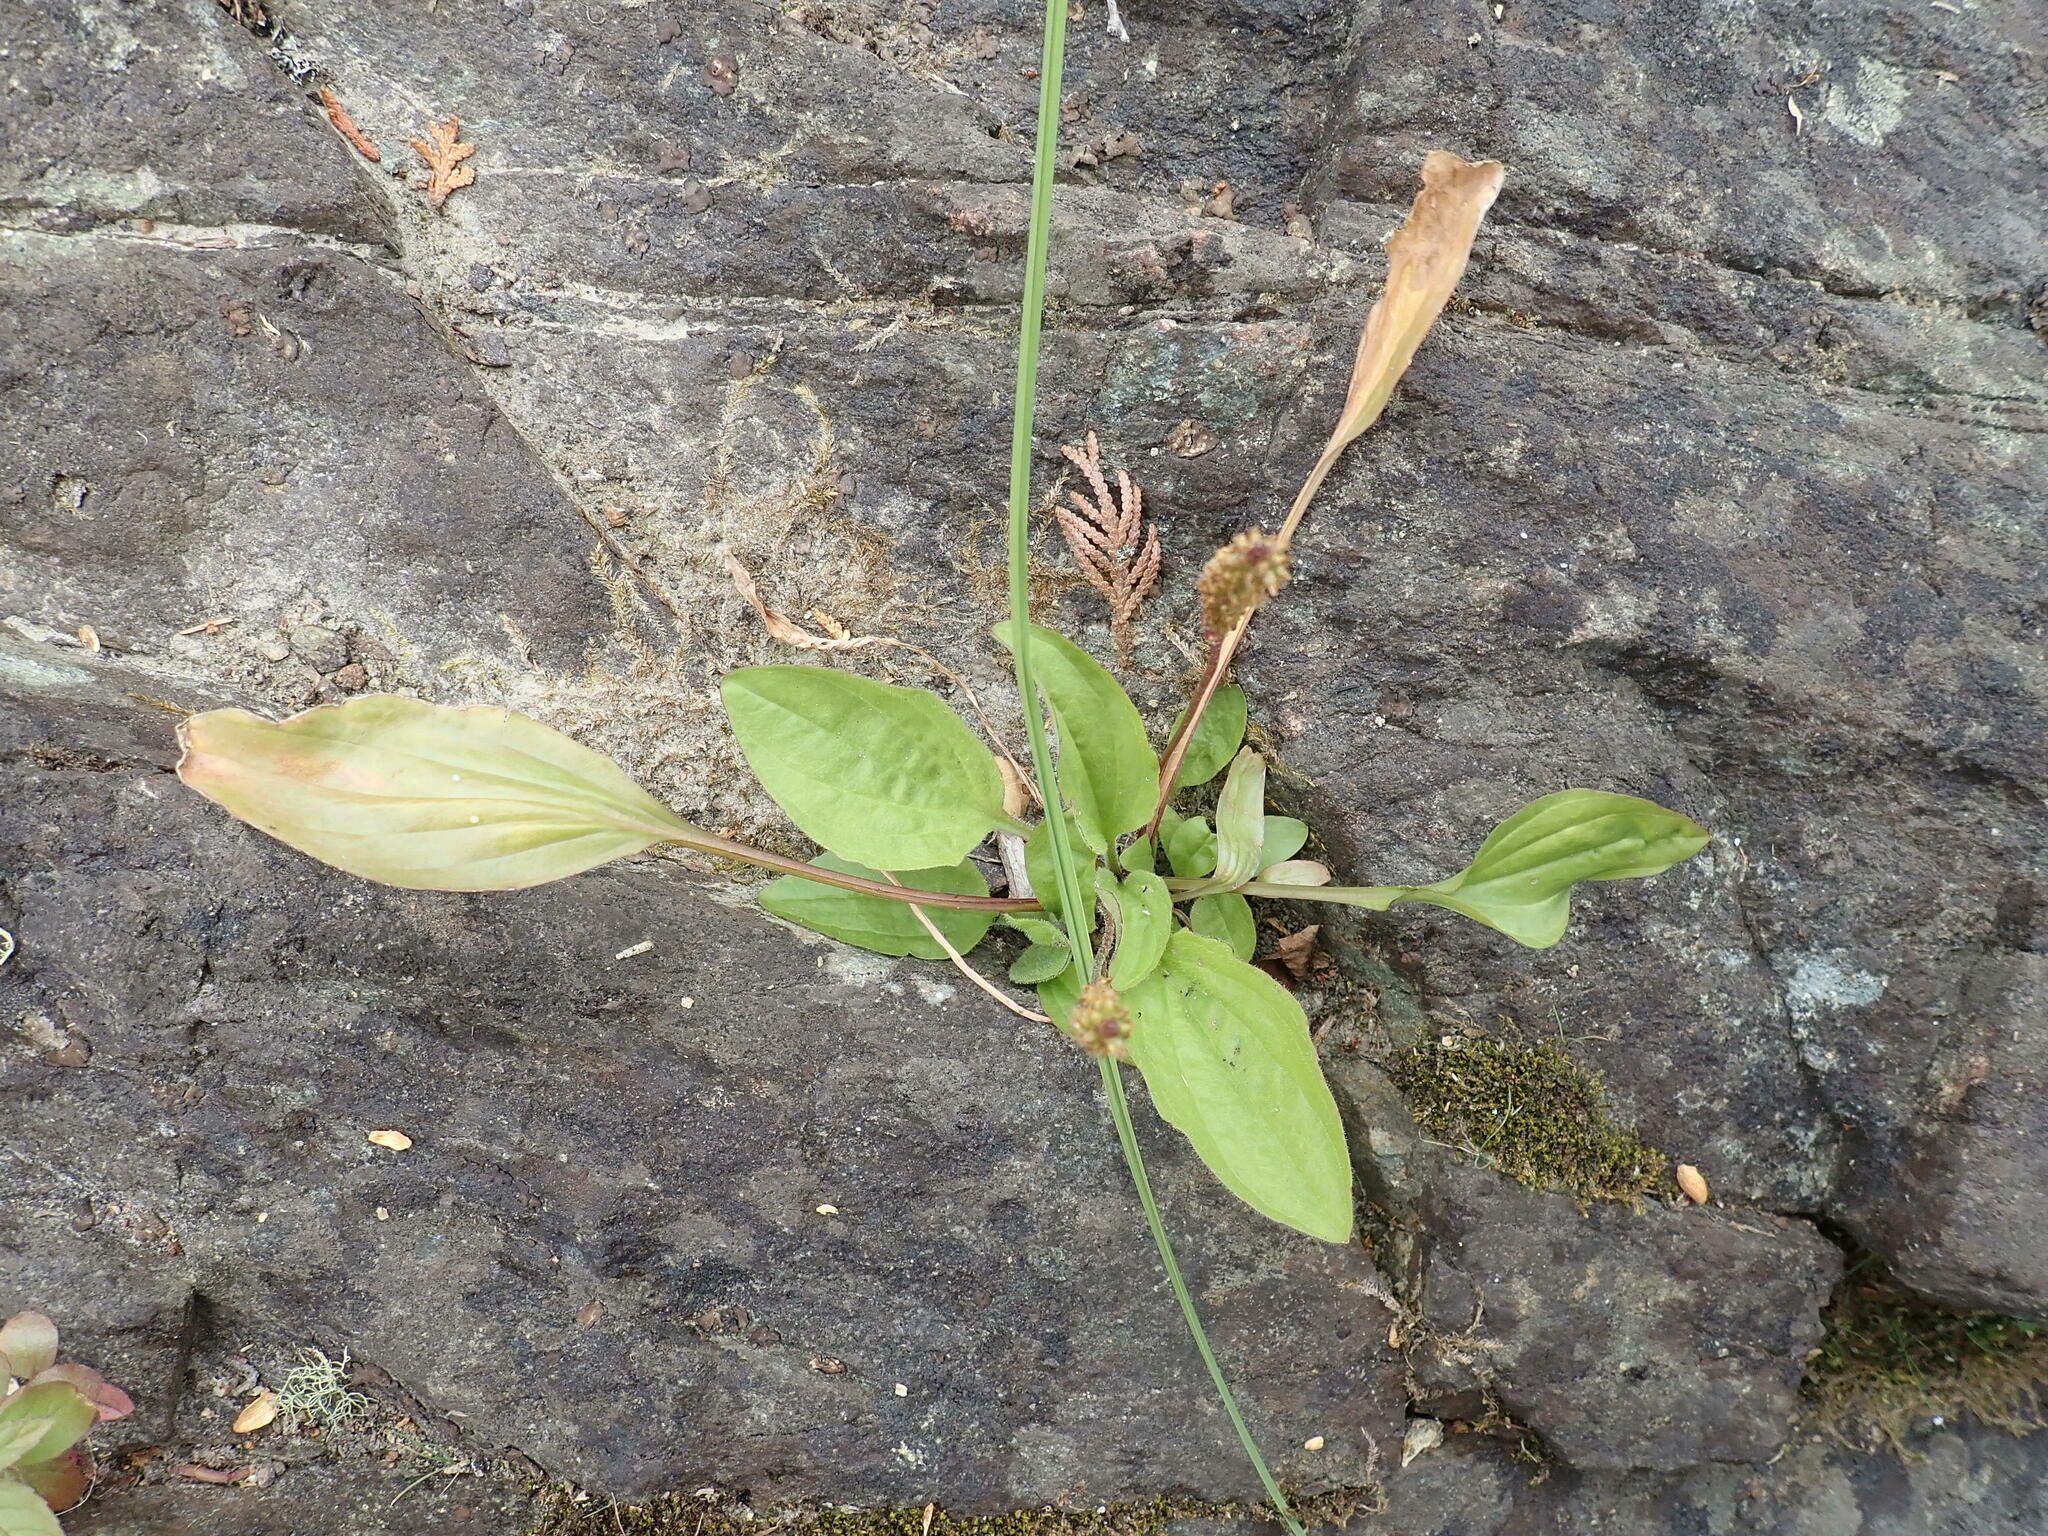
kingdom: Plantae
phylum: Tracheophyta
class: Magnoliopsida
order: Lamiales
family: Plantaginaceae
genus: Plantago
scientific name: Plantago rugelii
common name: American plantain
